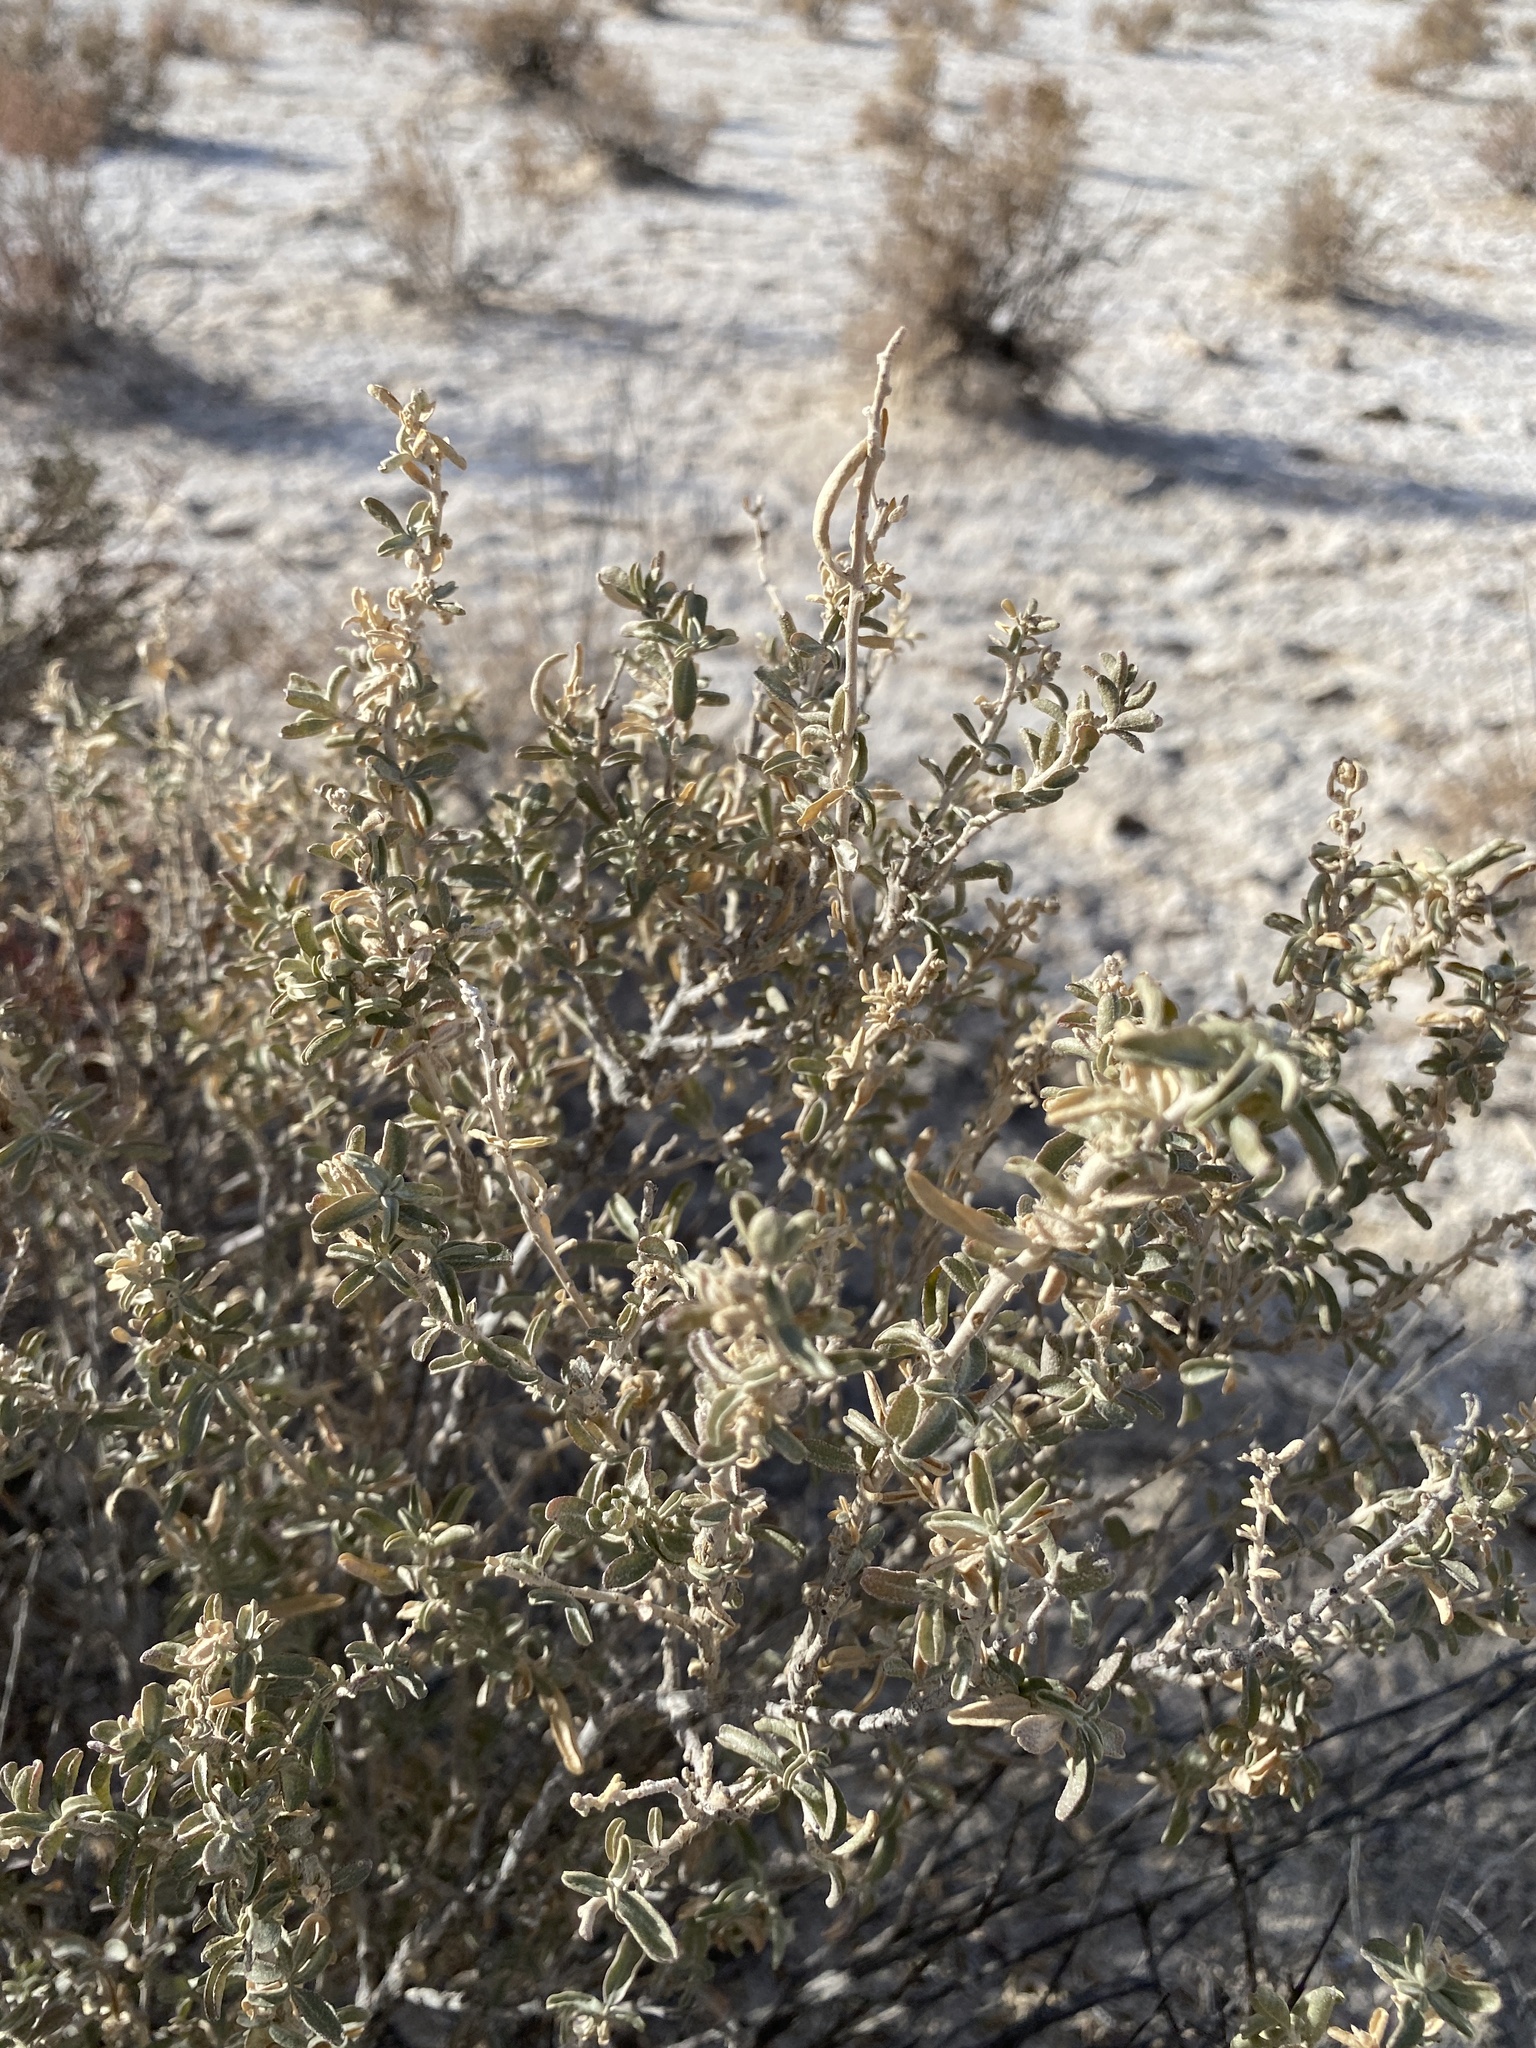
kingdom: Plantae
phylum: Tracheophyta
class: Magnoliopsida
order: Caryophyllales
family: Amaranthaceae
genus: Atriplex
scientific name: Atriplex canescens
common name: Four-wing saltbush
